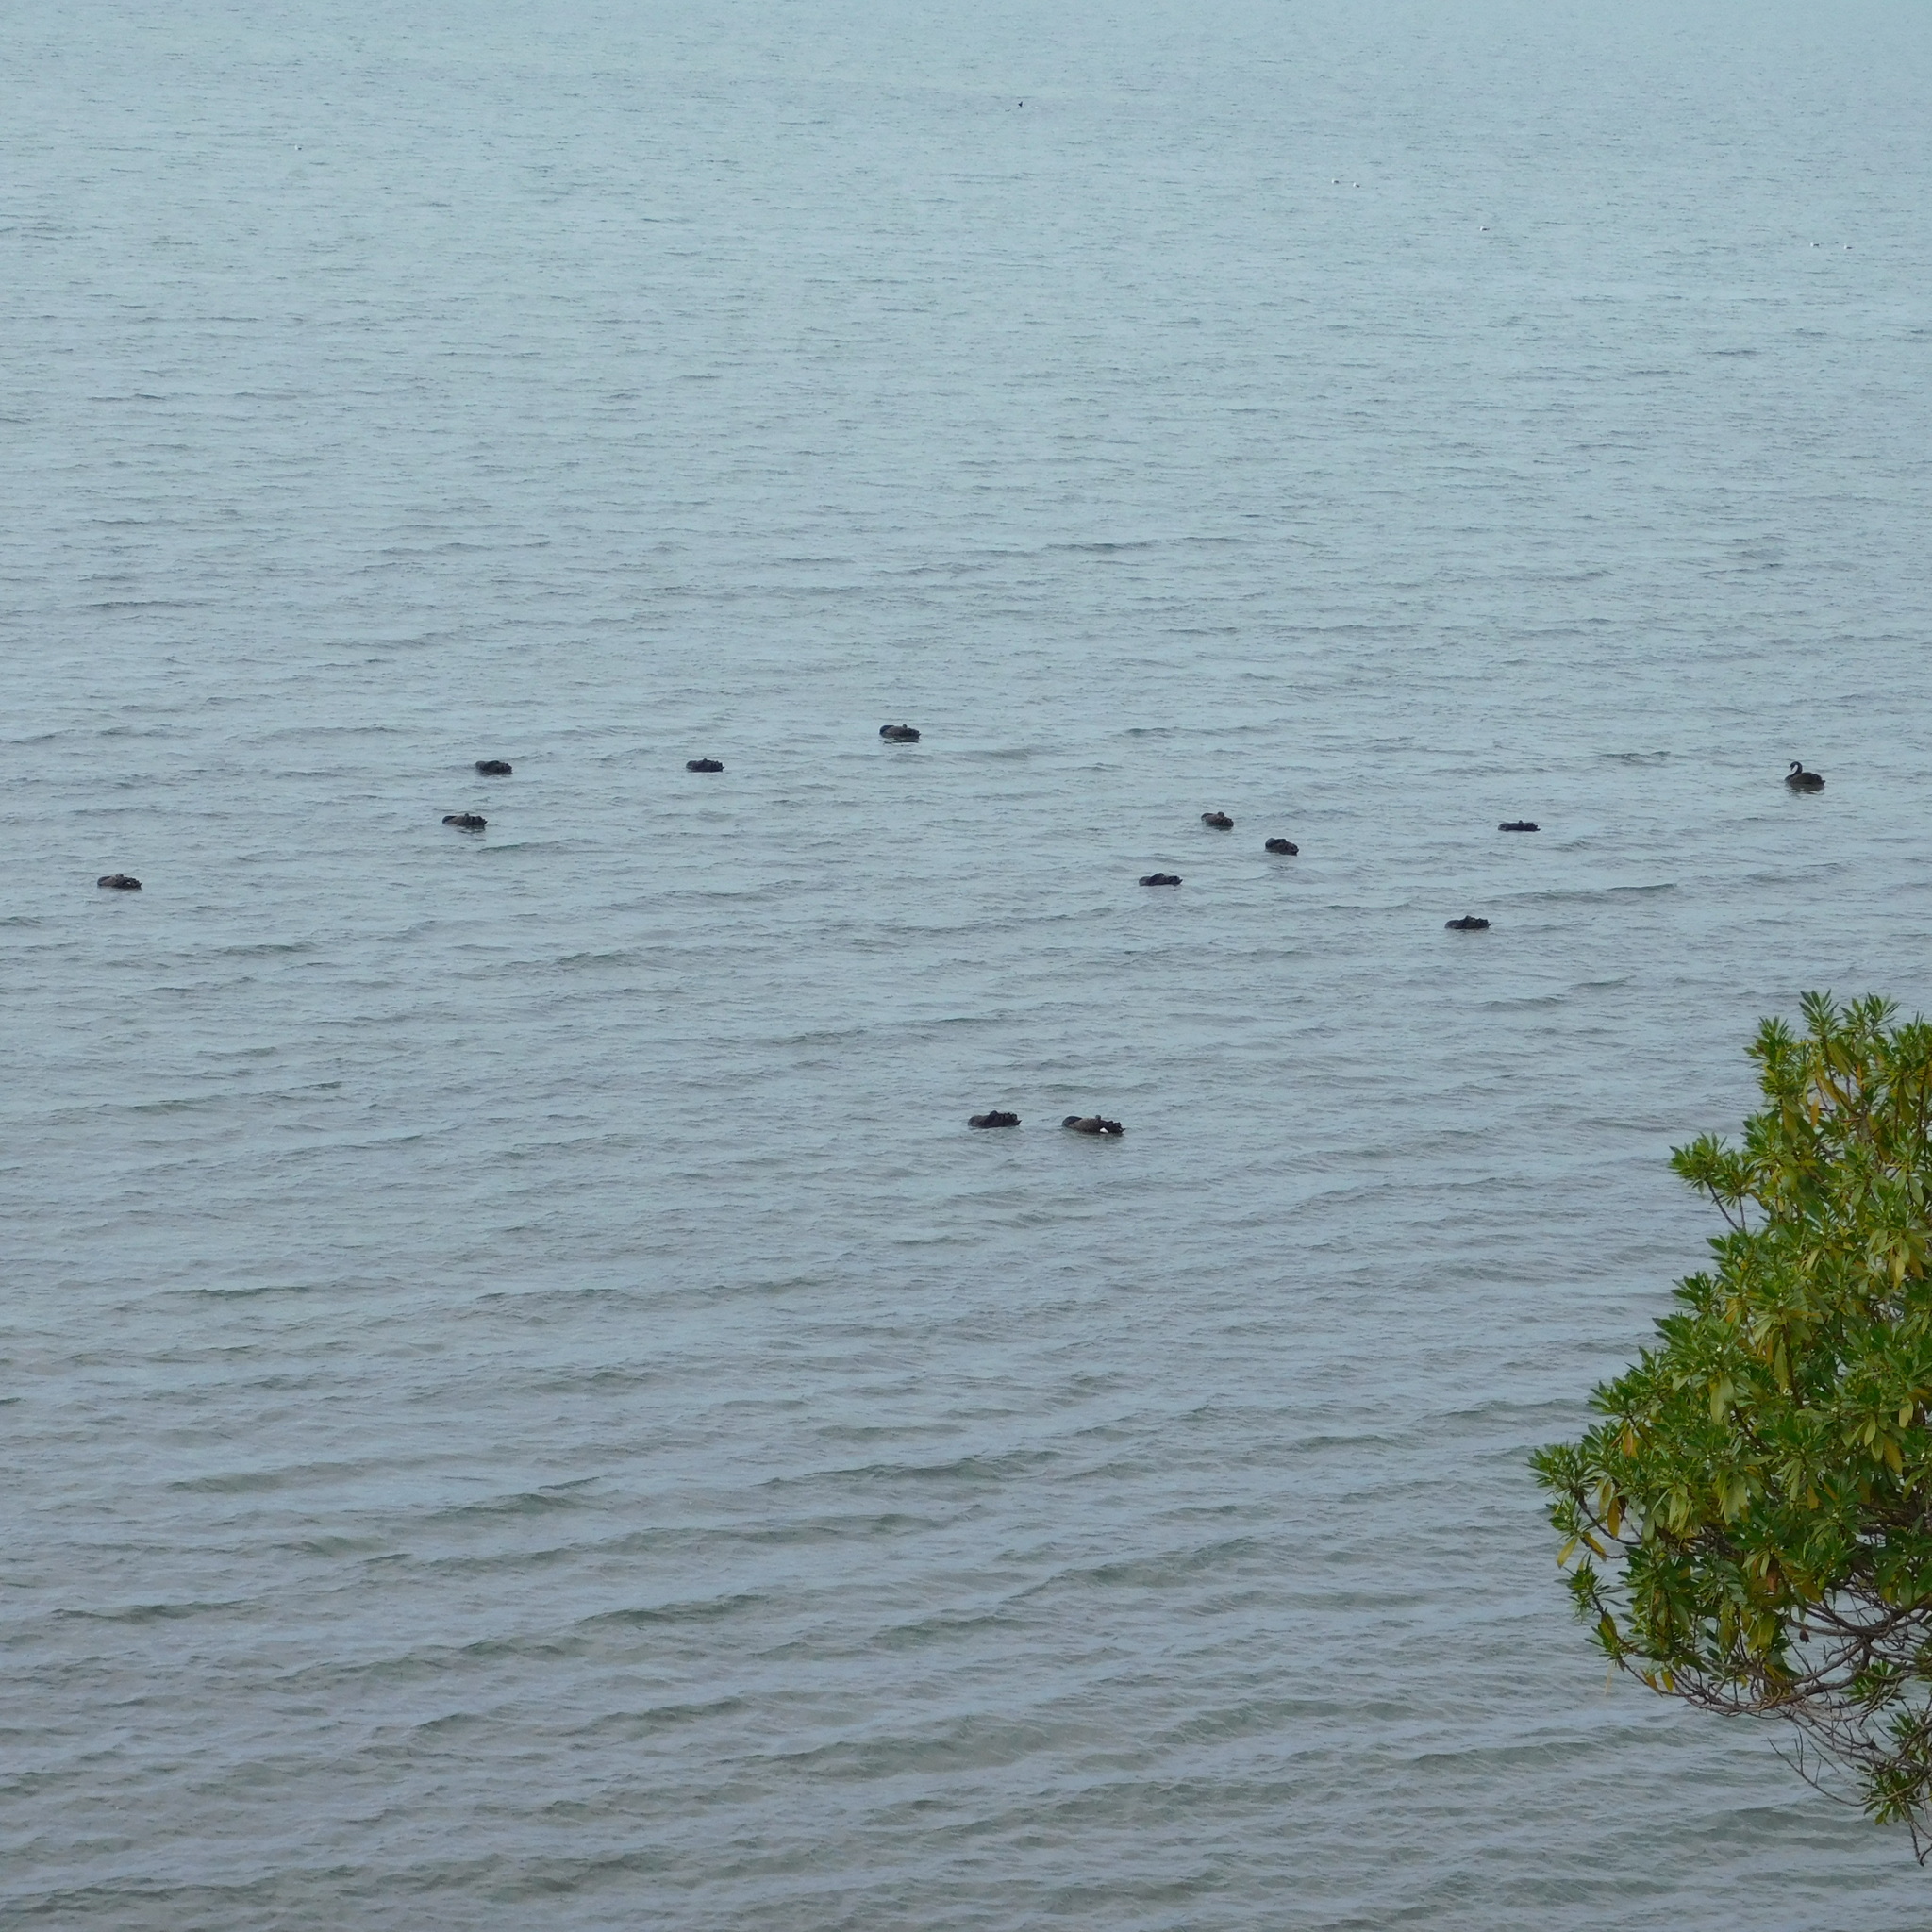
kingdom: Animalia
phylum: Chordata
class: Aves
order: Anseriformes
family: Anatidae
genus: Cygnus
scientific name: Cygnus atratus
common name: Black swan
